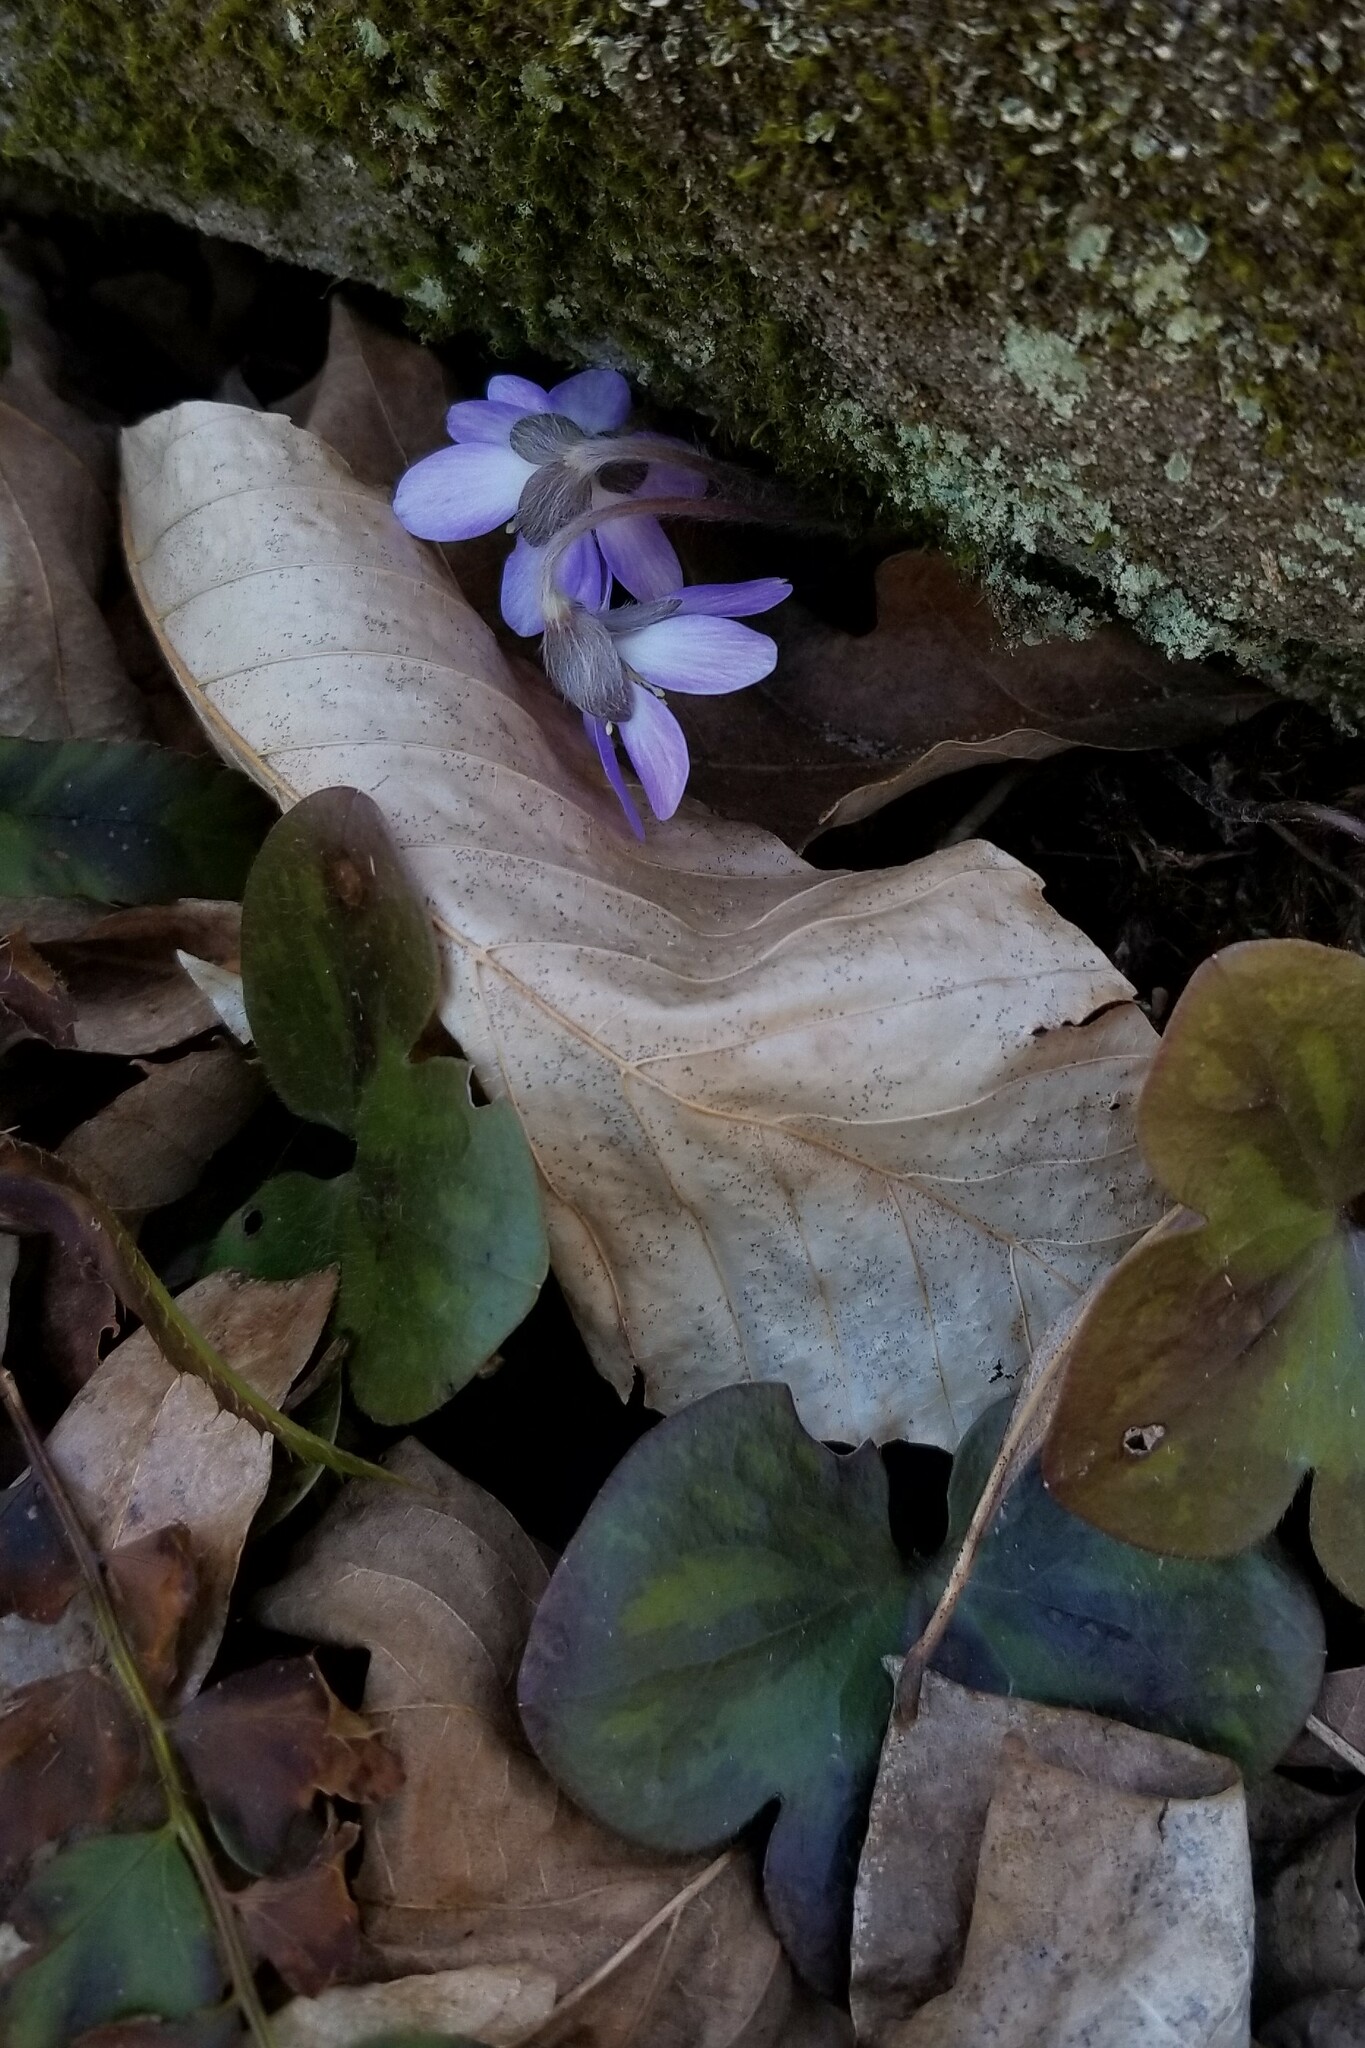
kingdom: Plantae
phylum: Tracheophyta
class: Magnoliopsida
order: Ranunculales
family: Ranunculaceae
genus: Hepatica
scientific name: Hepatica americana
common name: American hepatica
